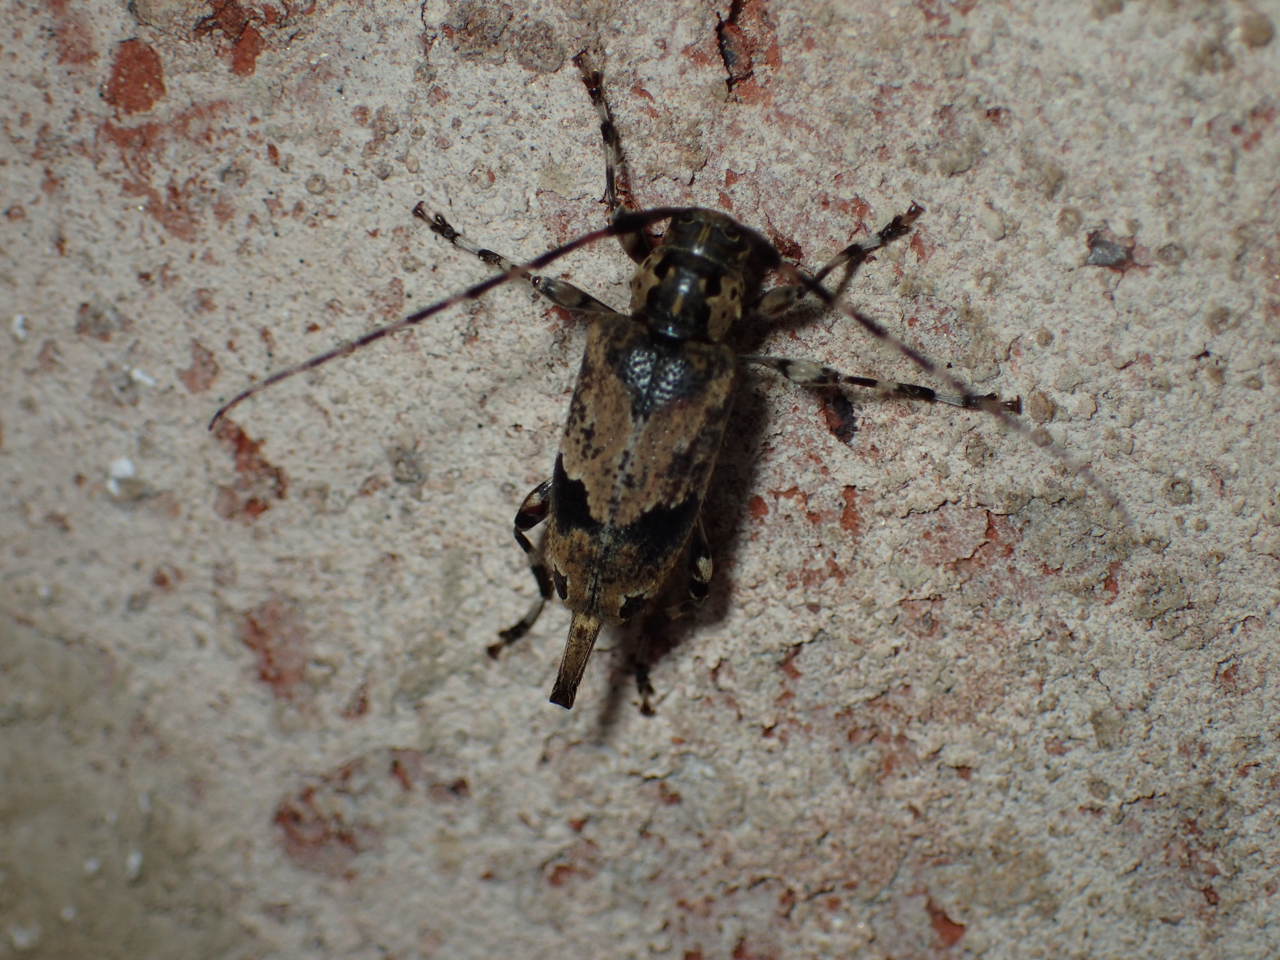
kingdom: Animalia
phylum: Arthropoda
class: Insecta
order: Coleoptera
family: Cerambycidae
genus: Graphisurus
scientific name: Graphisurus triangulifer
